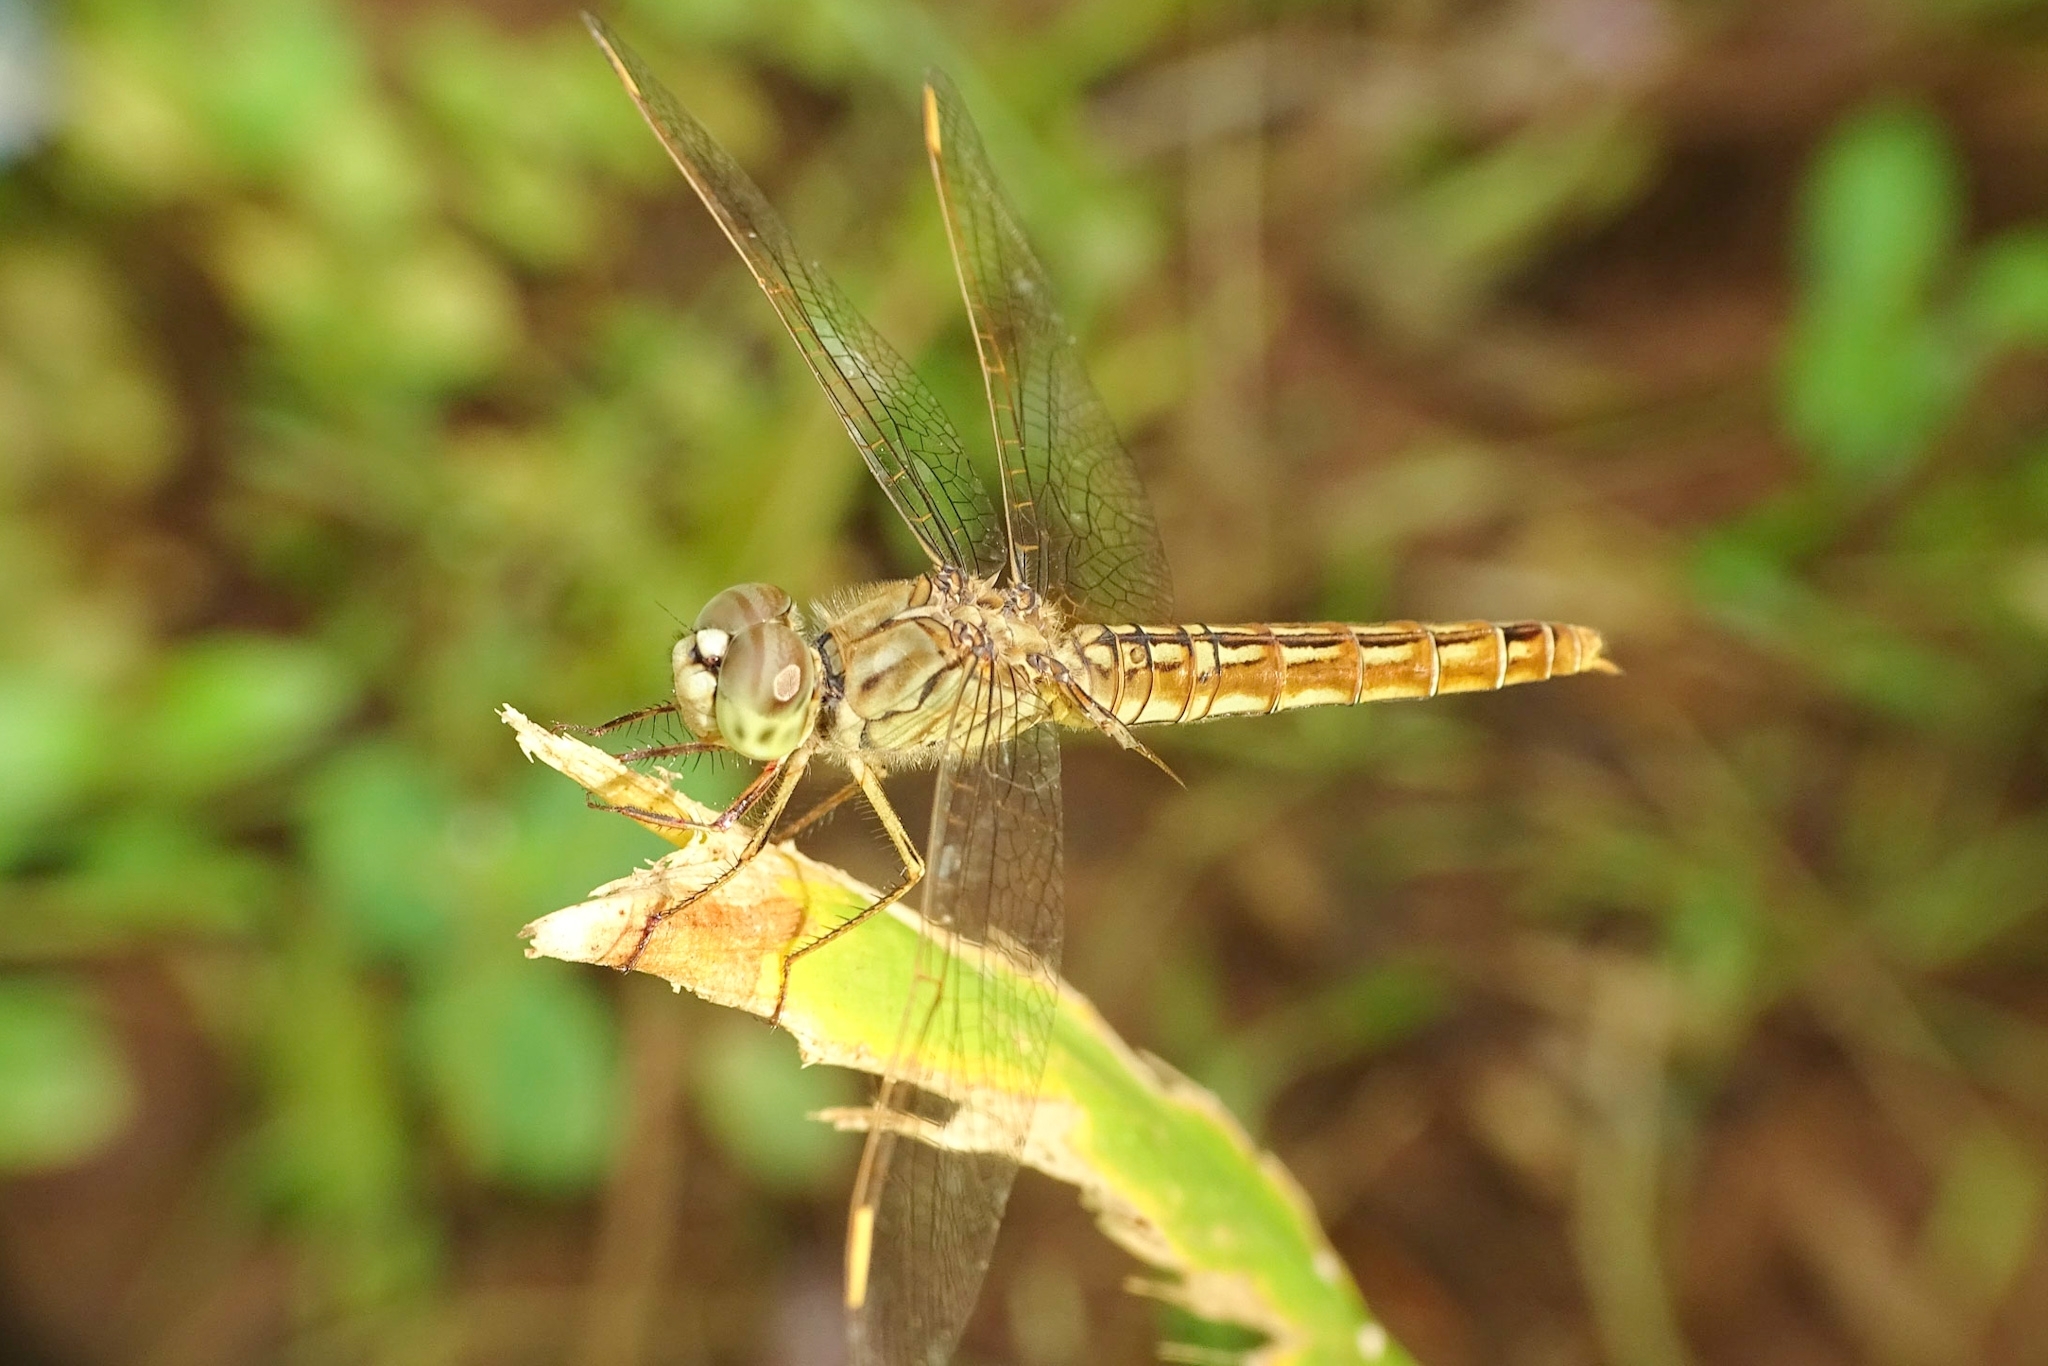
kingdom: Animalia
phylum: Arthropoda
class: Insecta
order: Odonata
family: Libellulidae
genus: Brachythemis
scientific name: Brachythemis contaminata
